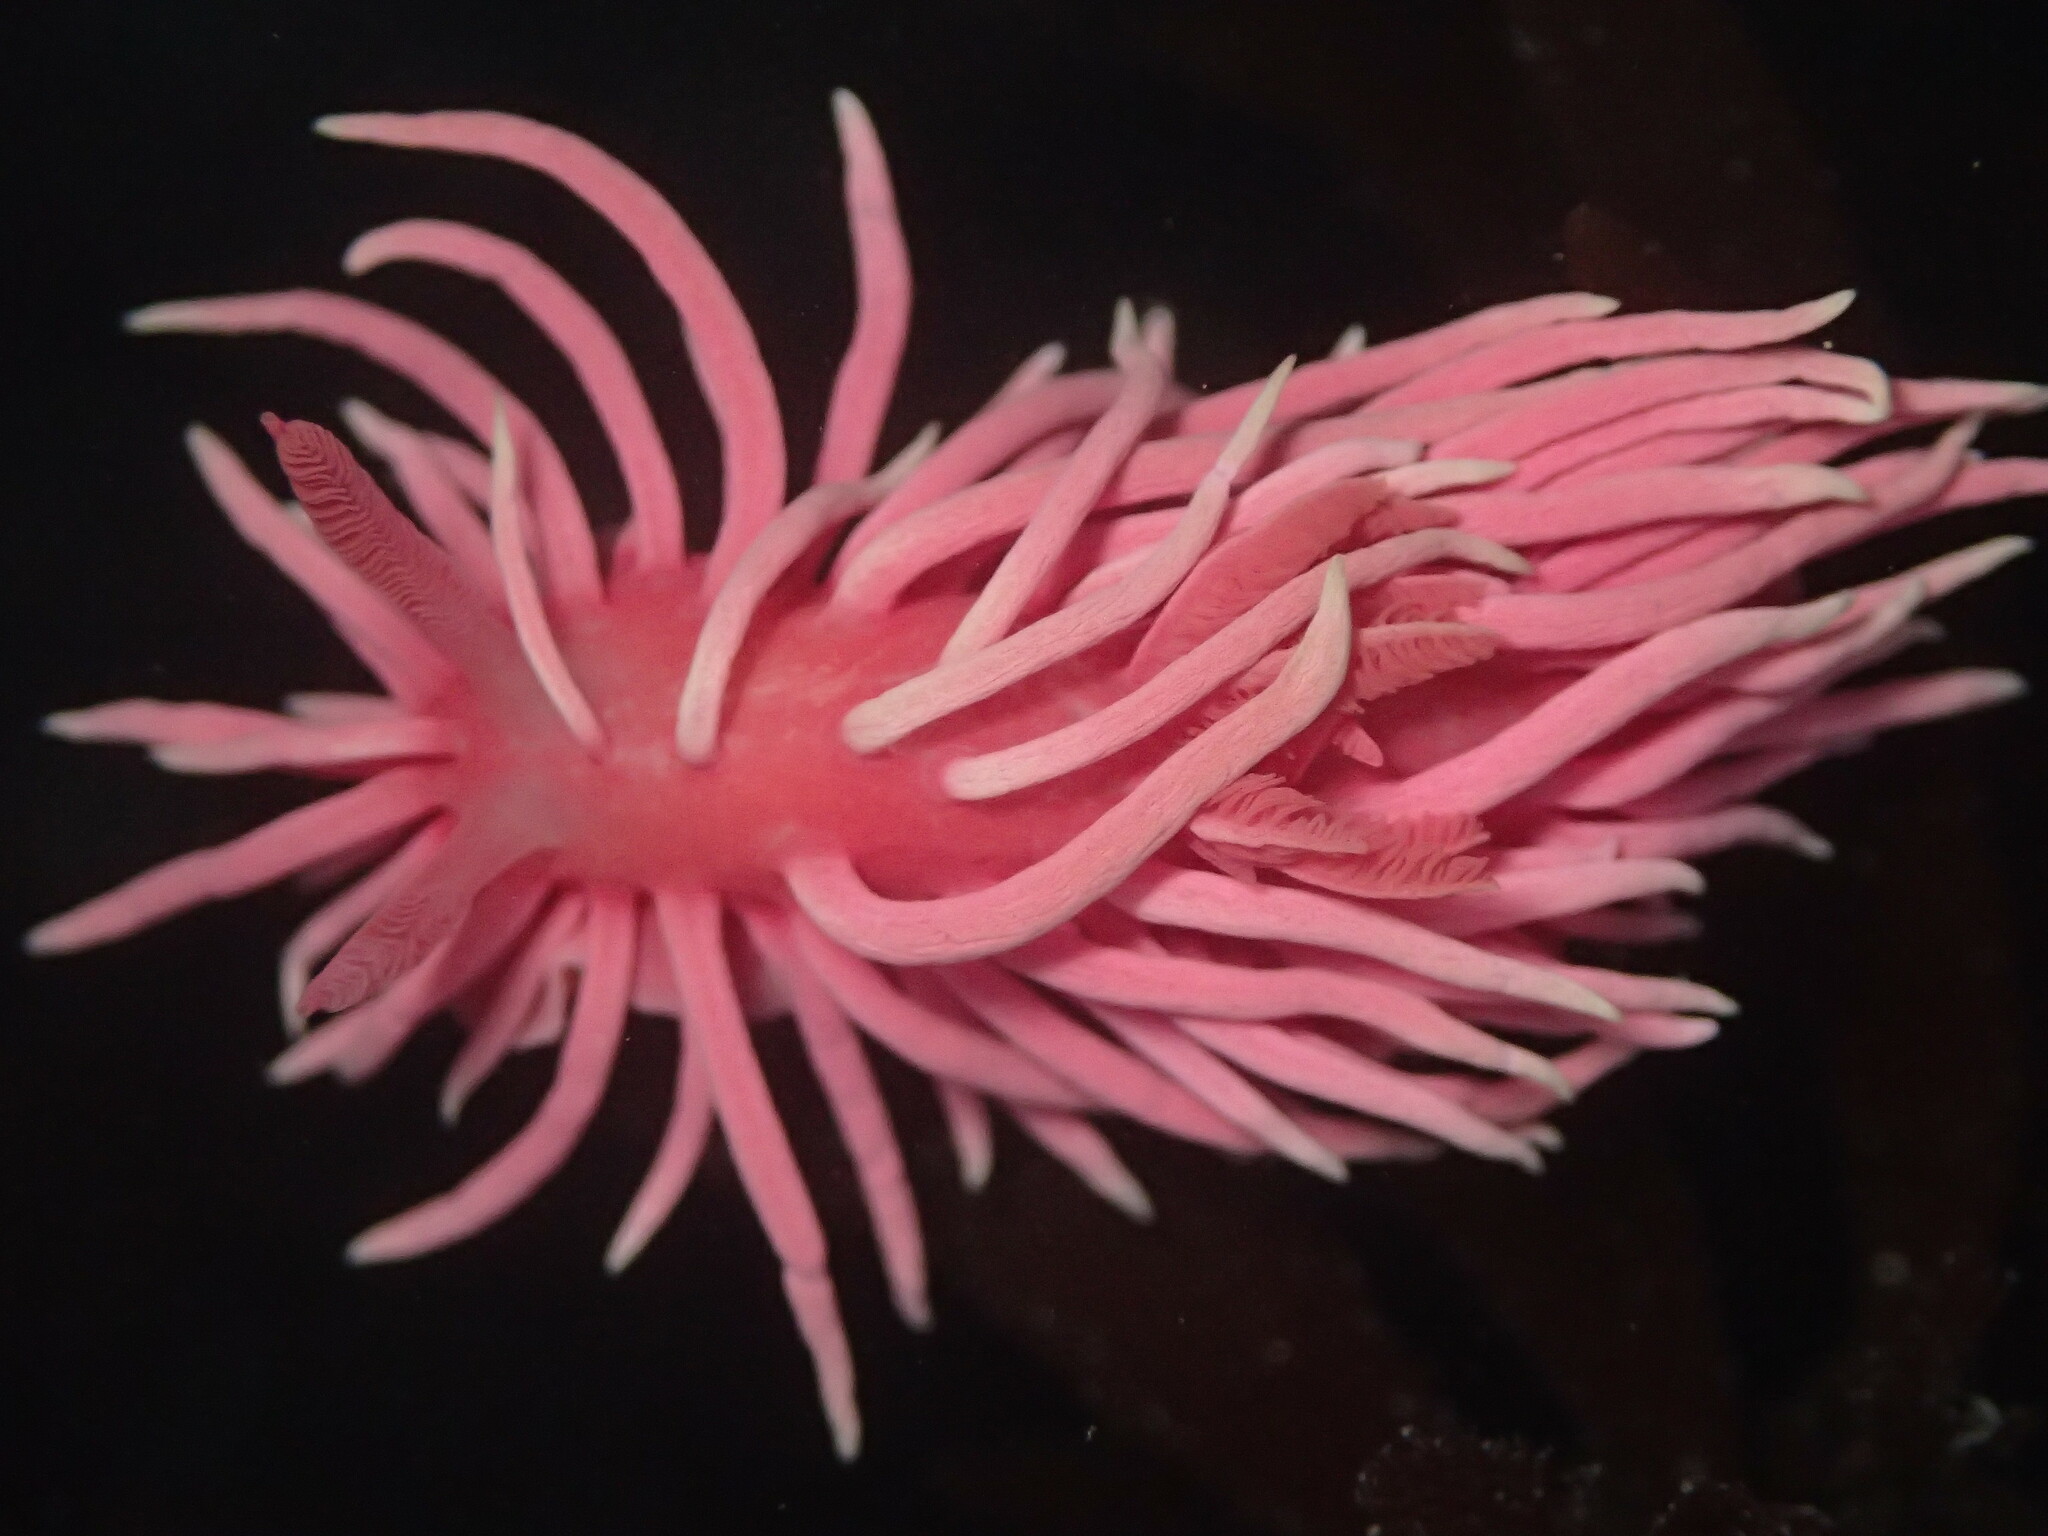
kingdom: Animalia
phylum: Mollusca
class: Gastropoda
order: Nudibranchia
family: Goniodorididae
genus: Okenia
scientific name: Okenia
